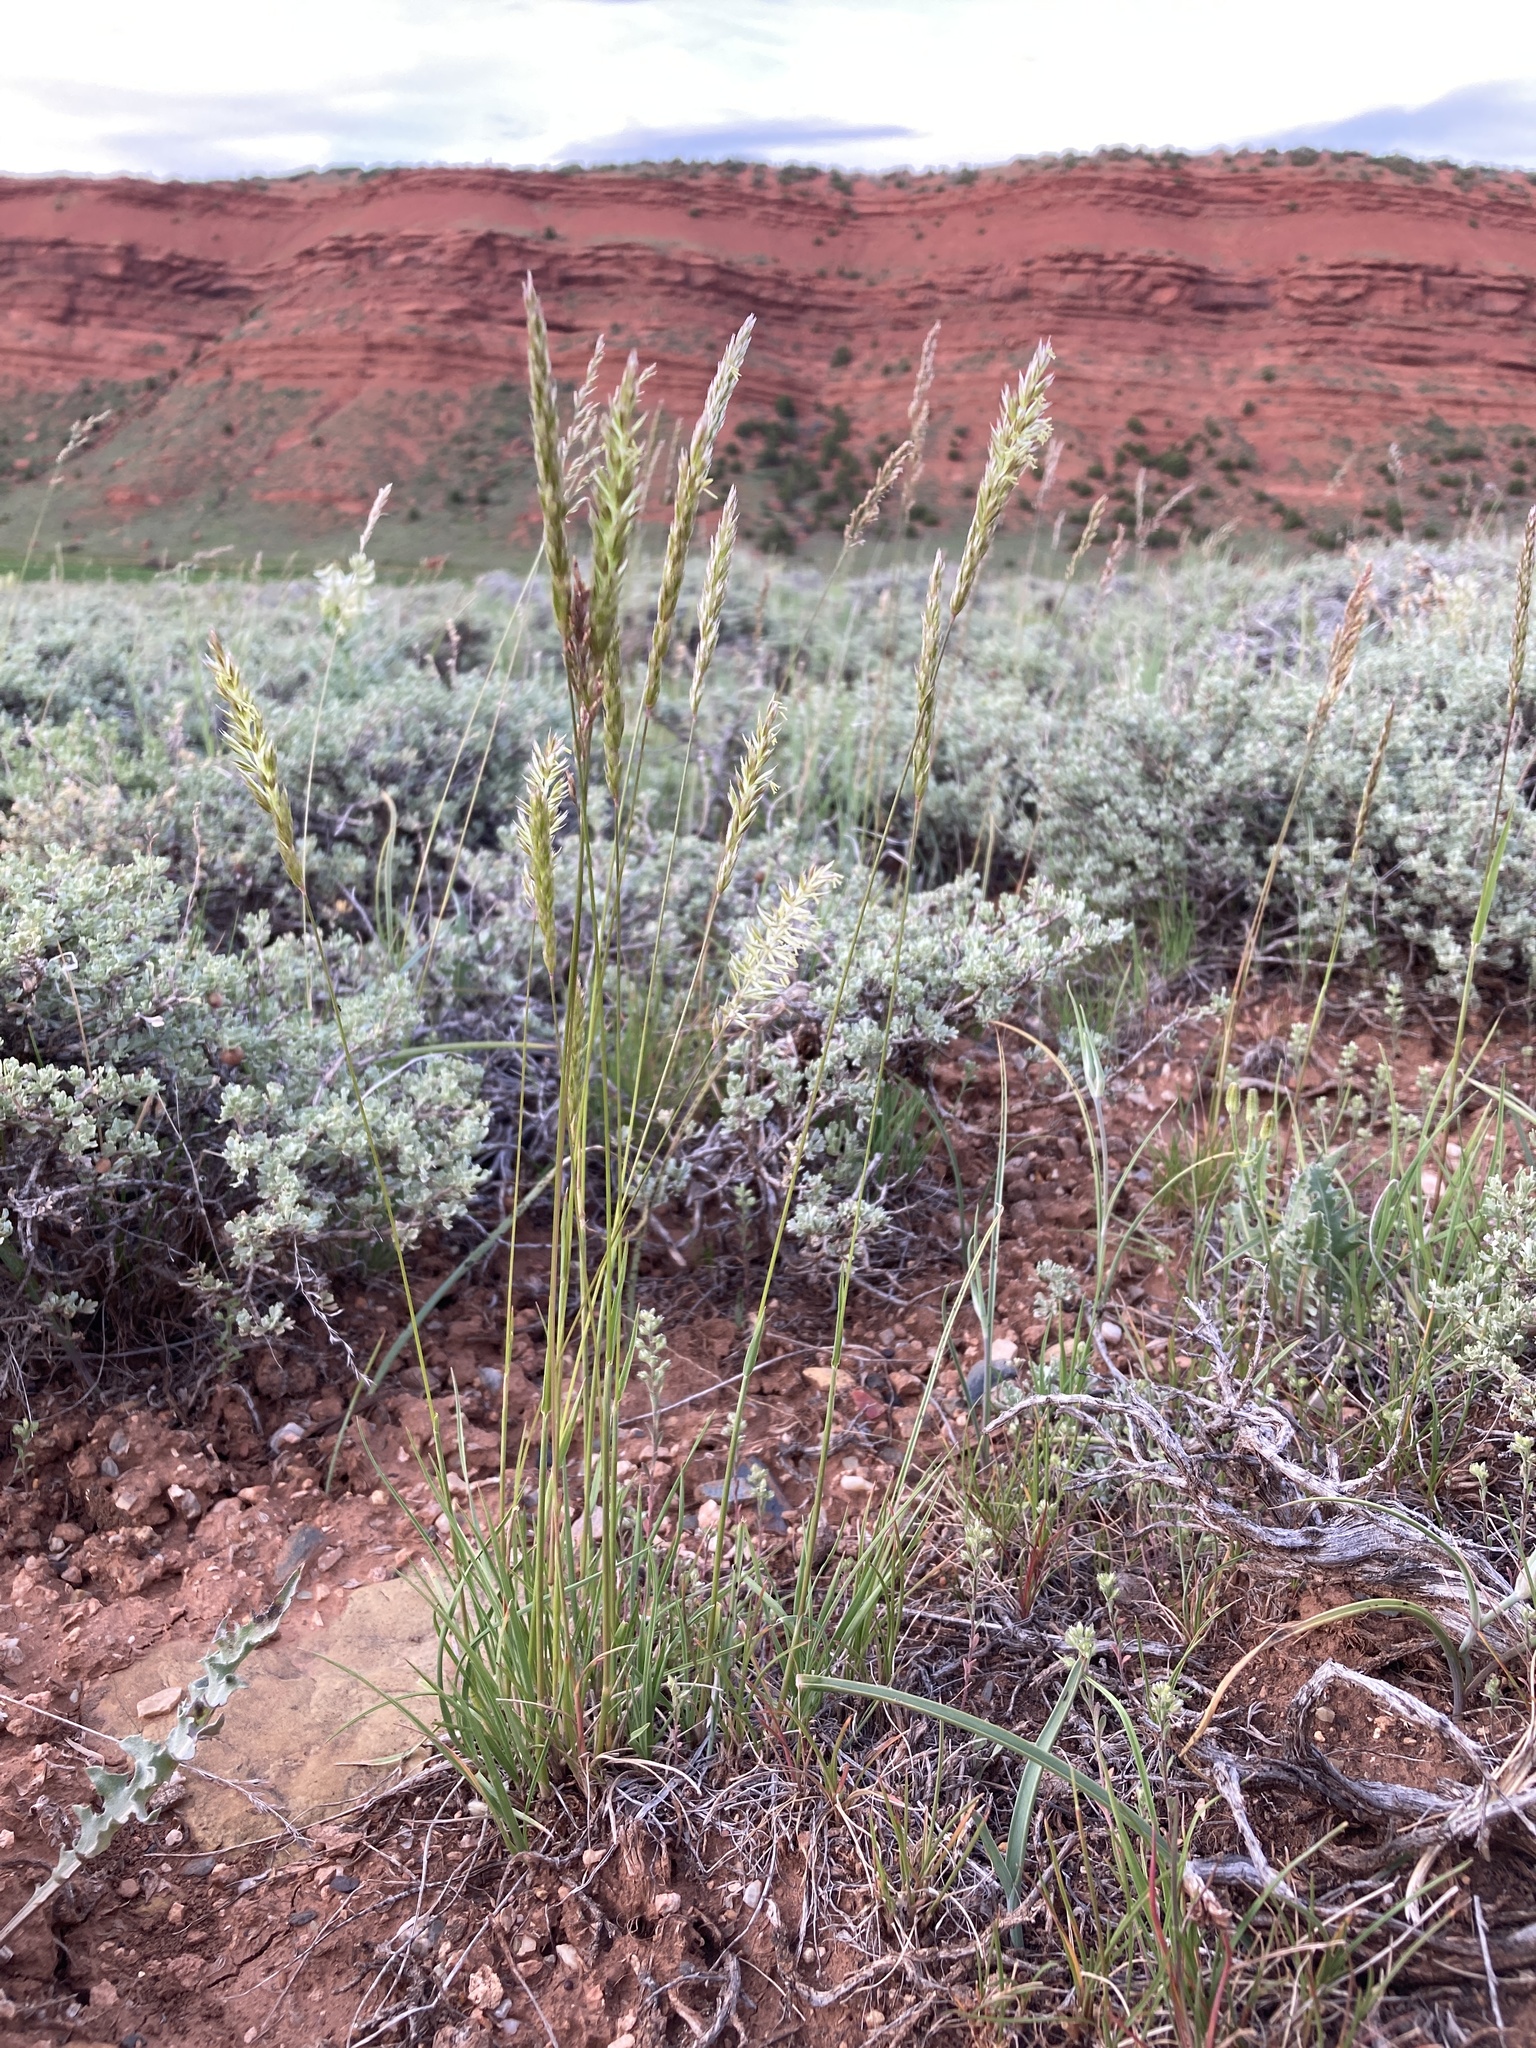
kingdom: Plantae
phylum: Tracheophyta
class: Liliopsida
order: Poales
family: Poaceae
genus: Koeleria
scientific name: Koeleria macrantha
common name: Crested hair-grass
